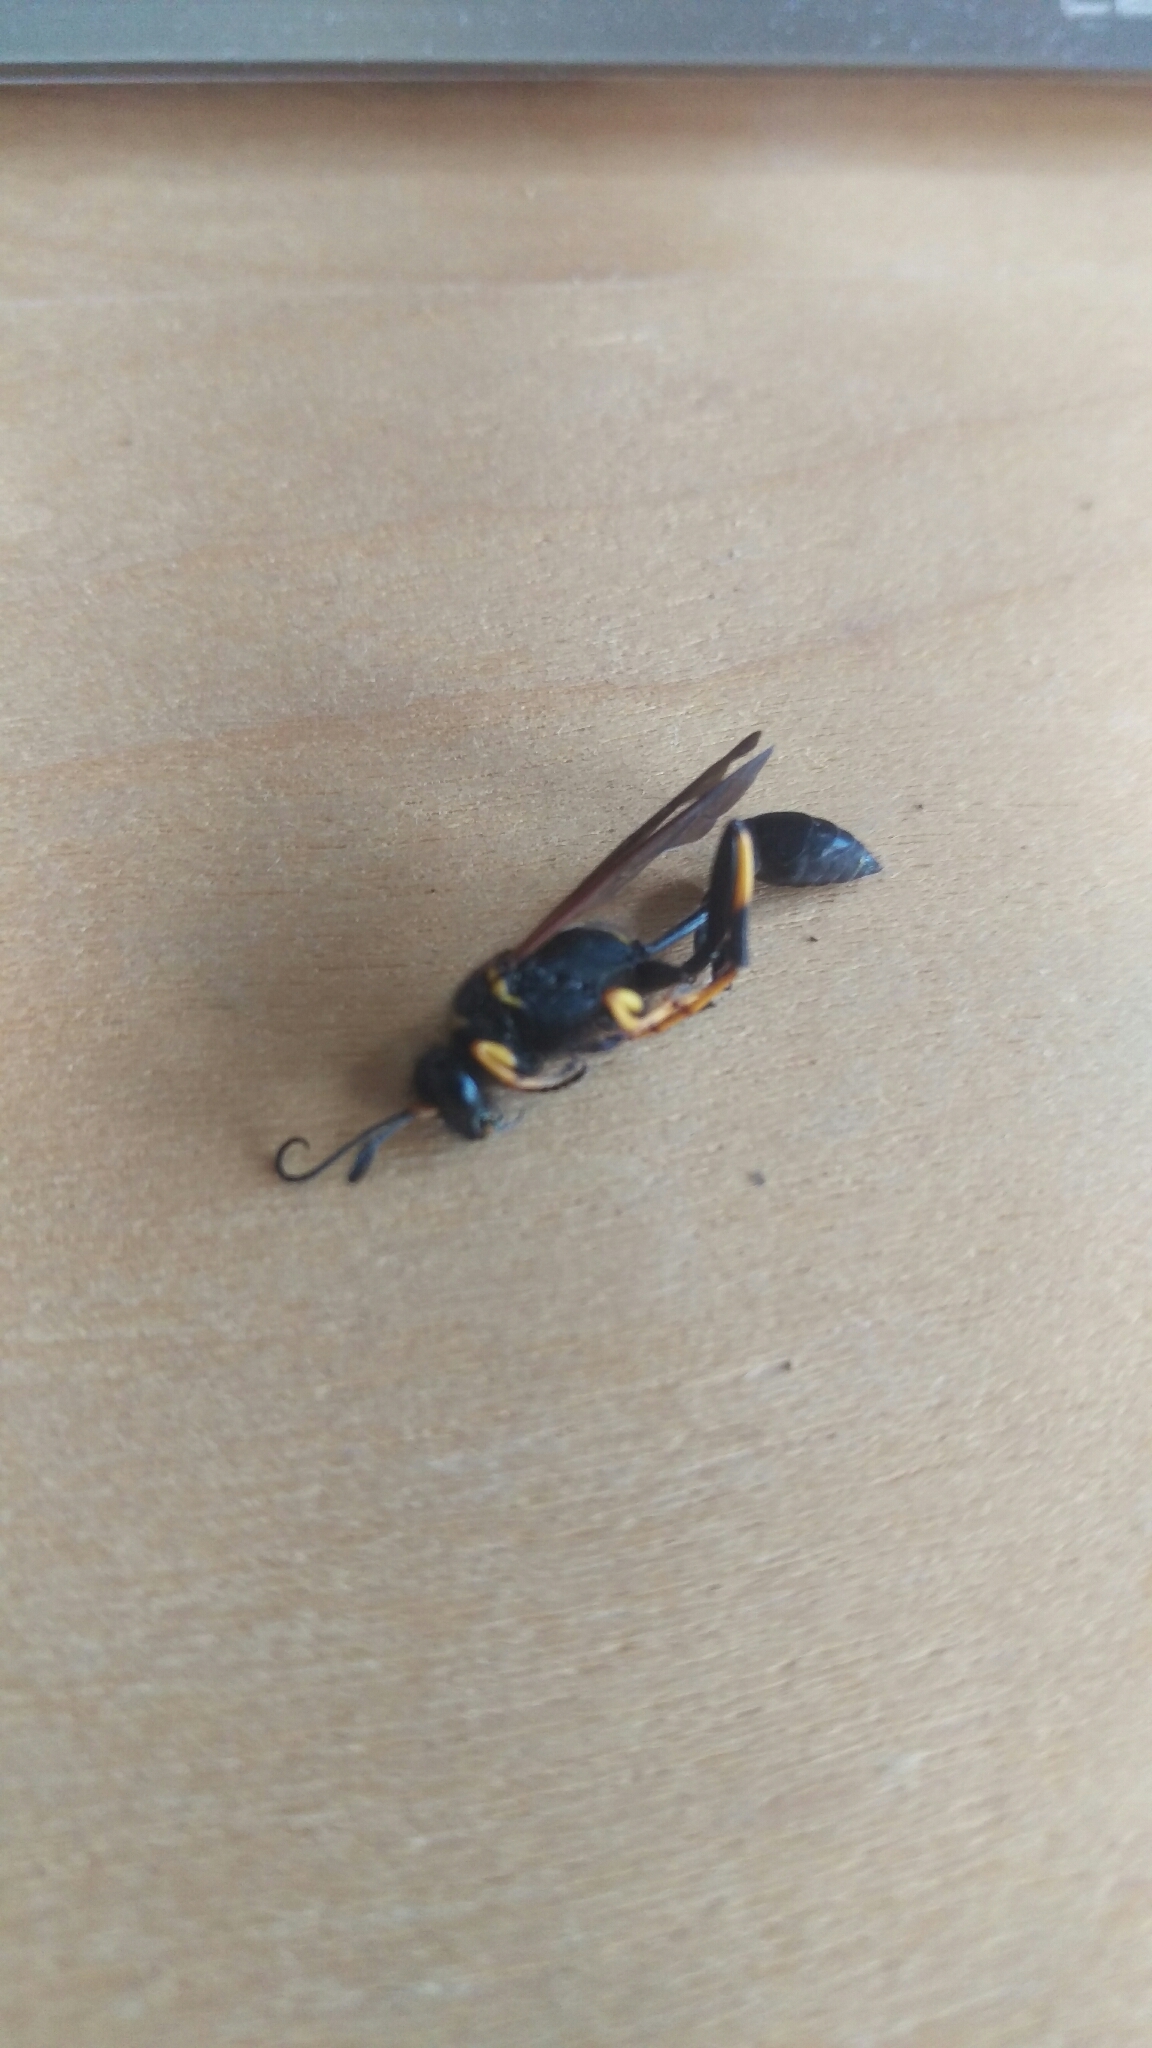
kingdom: Animalia
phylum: Arthropoda
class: Insecta
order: Hymenoptera
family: Sphecidae
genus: Sceliphron
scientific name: Sceliphron caementarium
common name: Mud dauber
